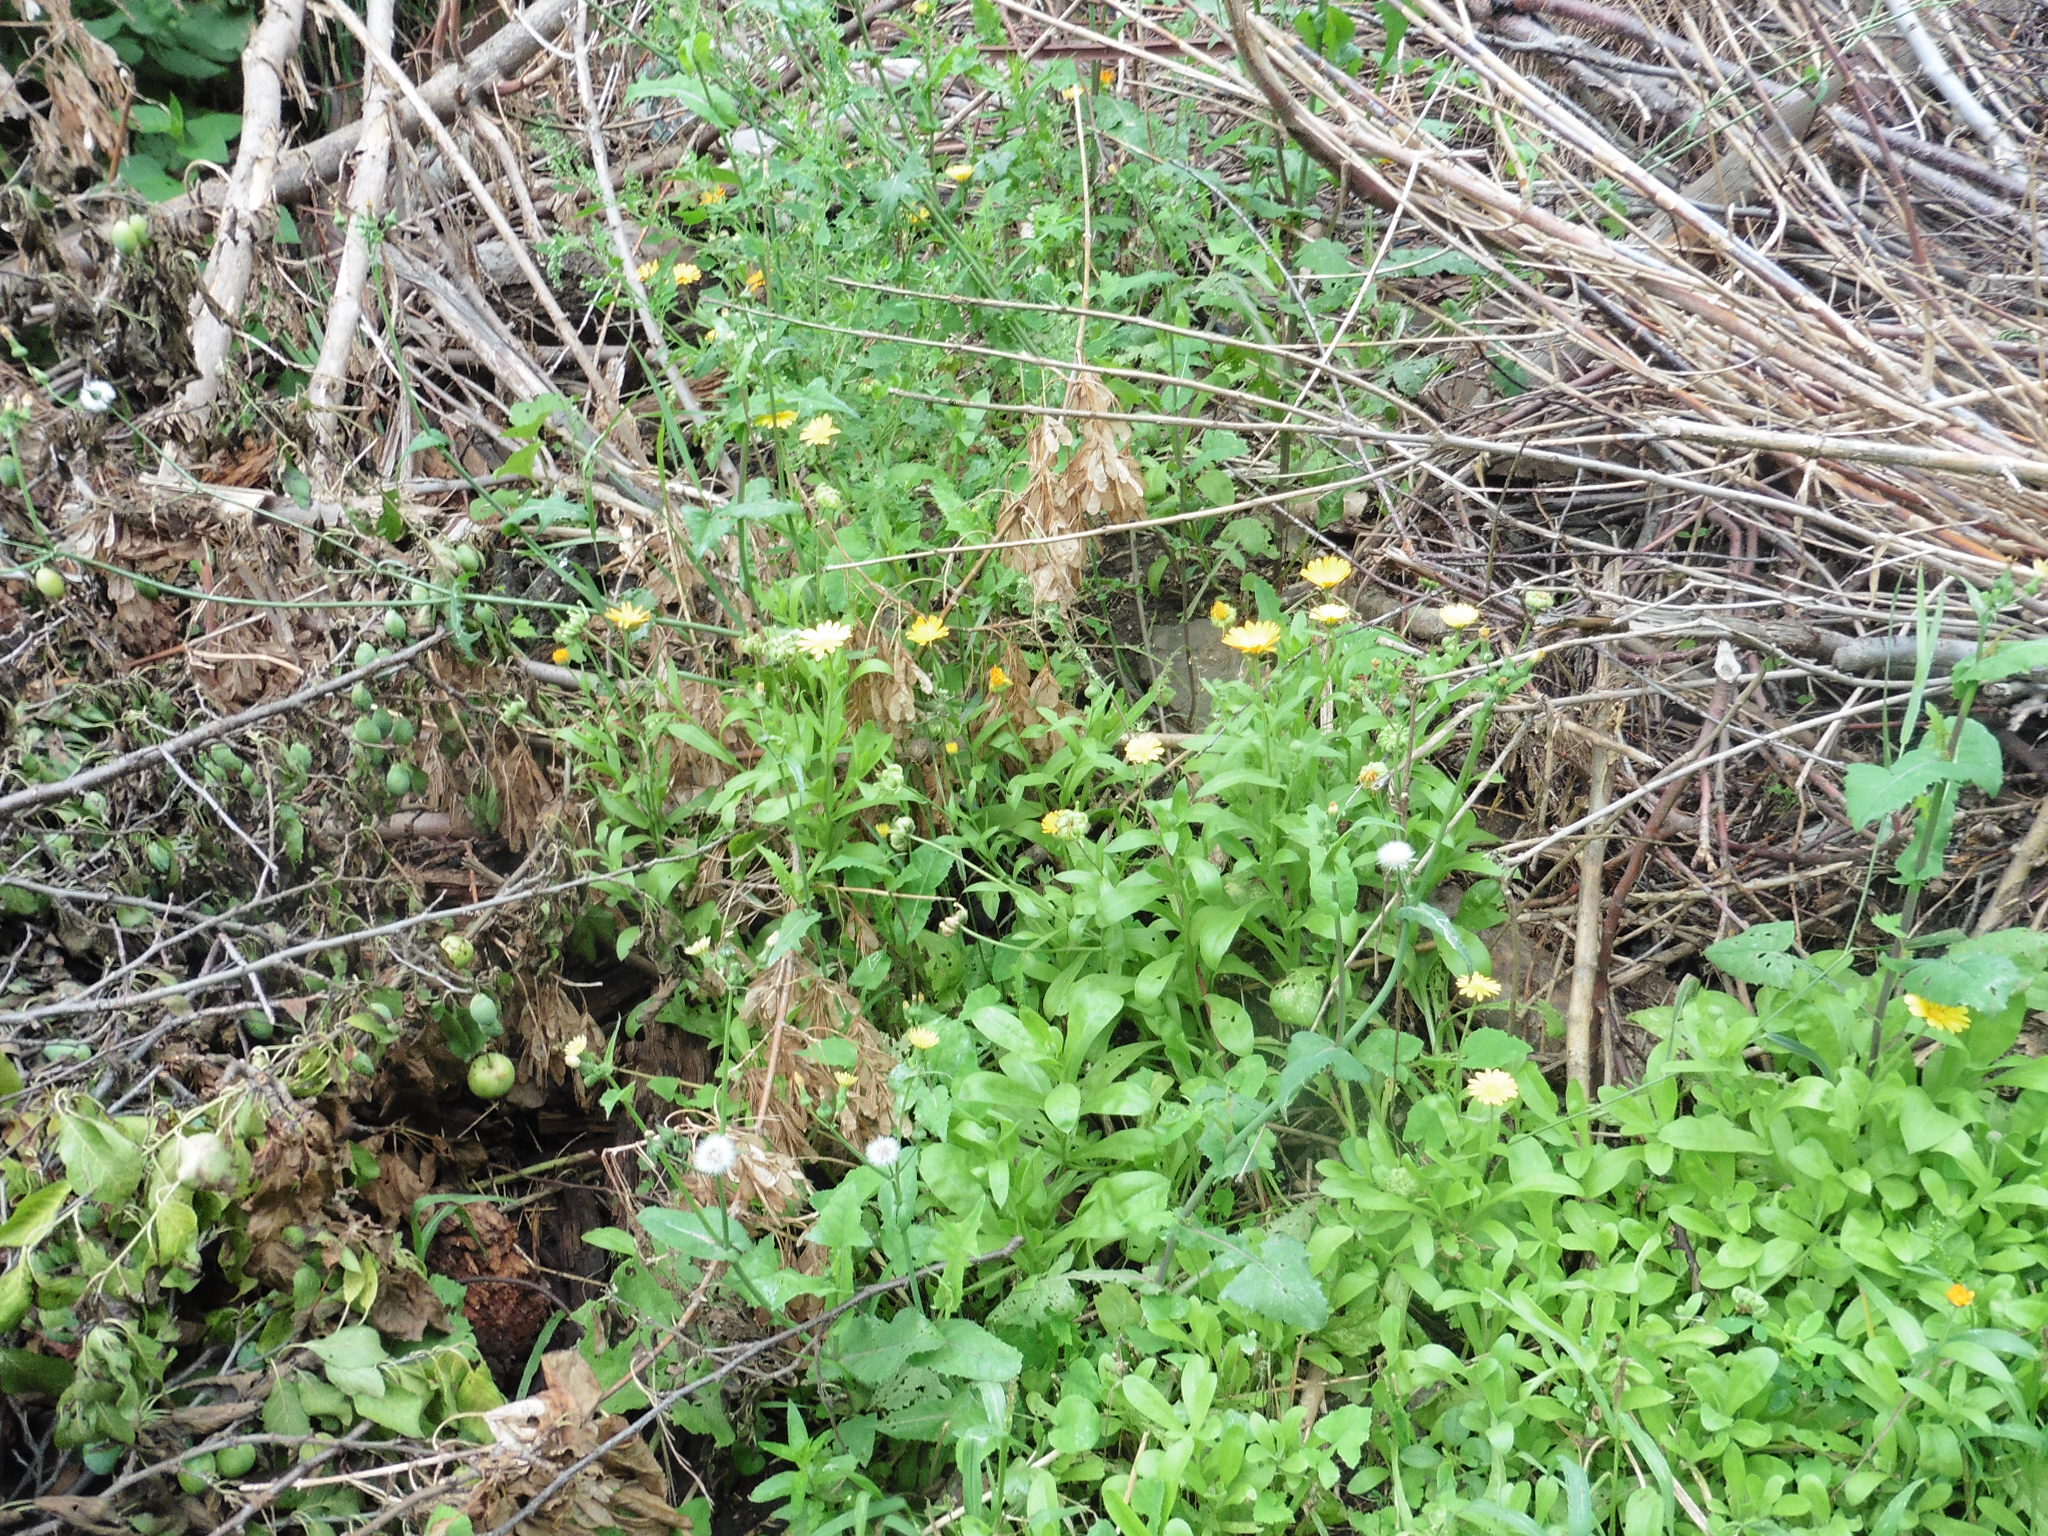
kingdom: Plantae
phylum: Tracheophyta
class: Magnoliopsida
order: Asterales
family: Asteraceae
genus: Calendula
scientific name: Calendula officinalis
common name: Pot marigold
